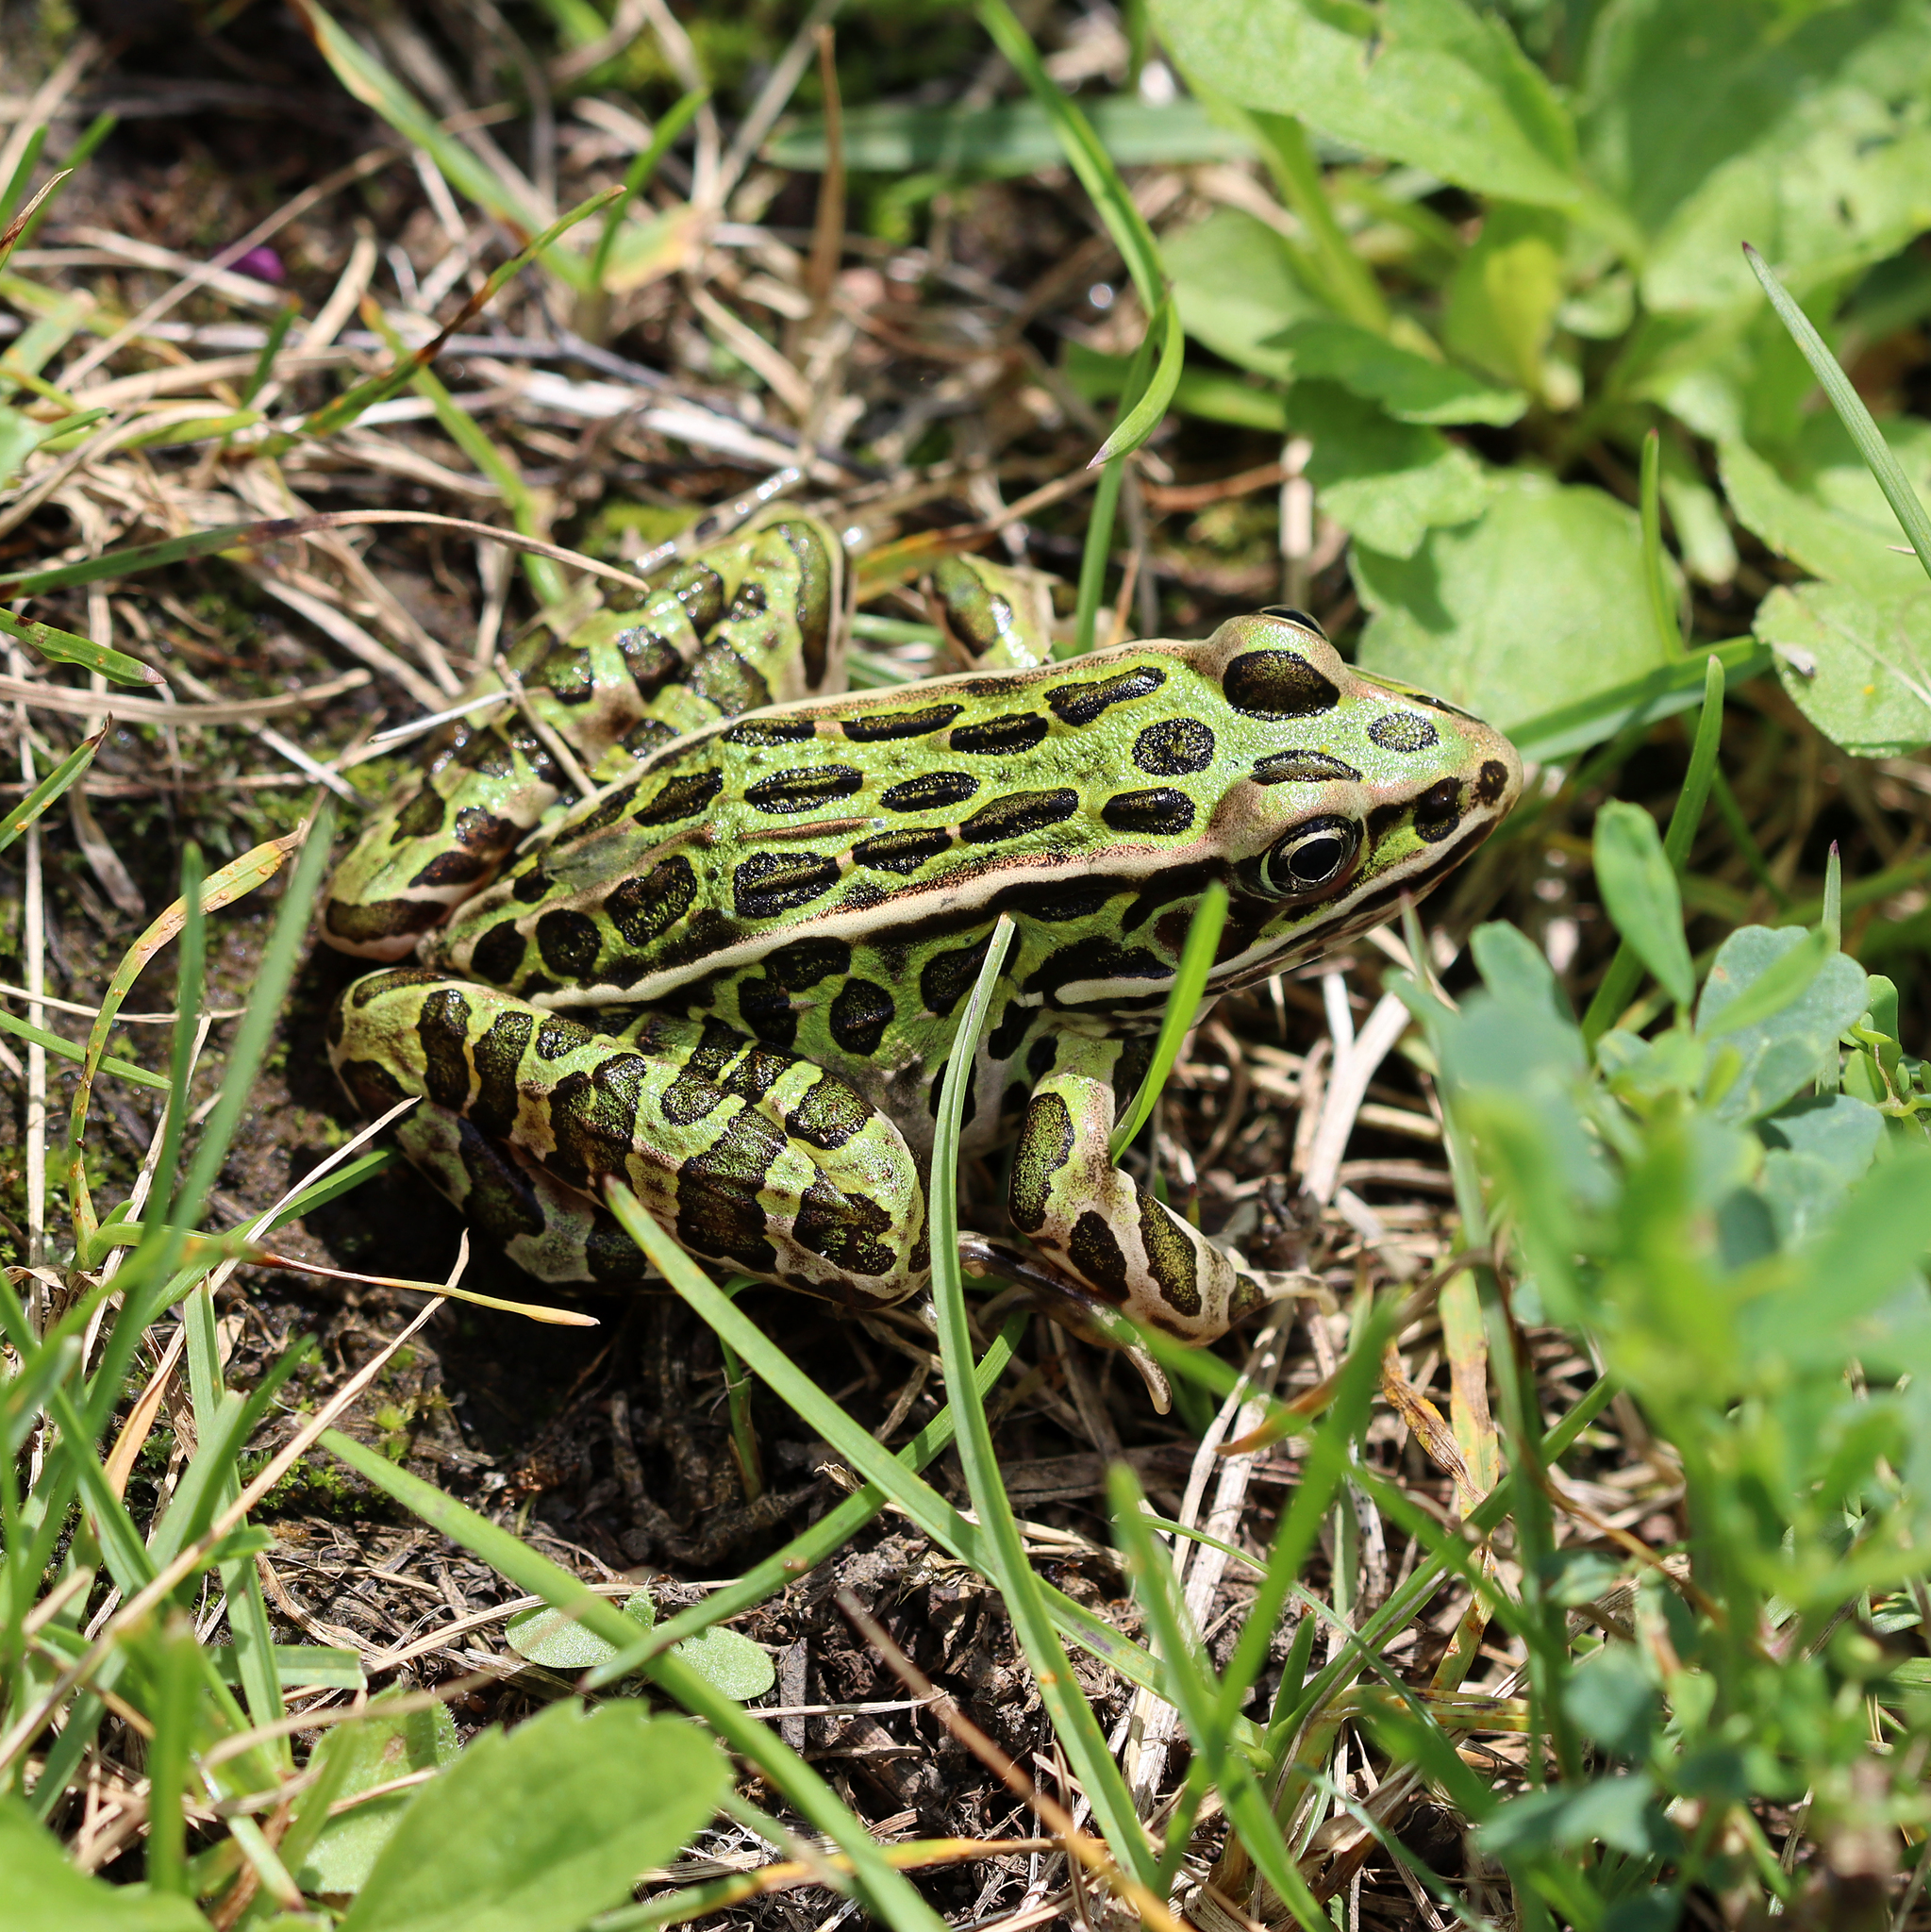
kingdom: Animalia
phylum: Chordata
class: Amphibia
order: Anura
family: Ranidae
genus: Lithobates
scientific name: Lithobates pipiens
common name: Northern leopard frog
